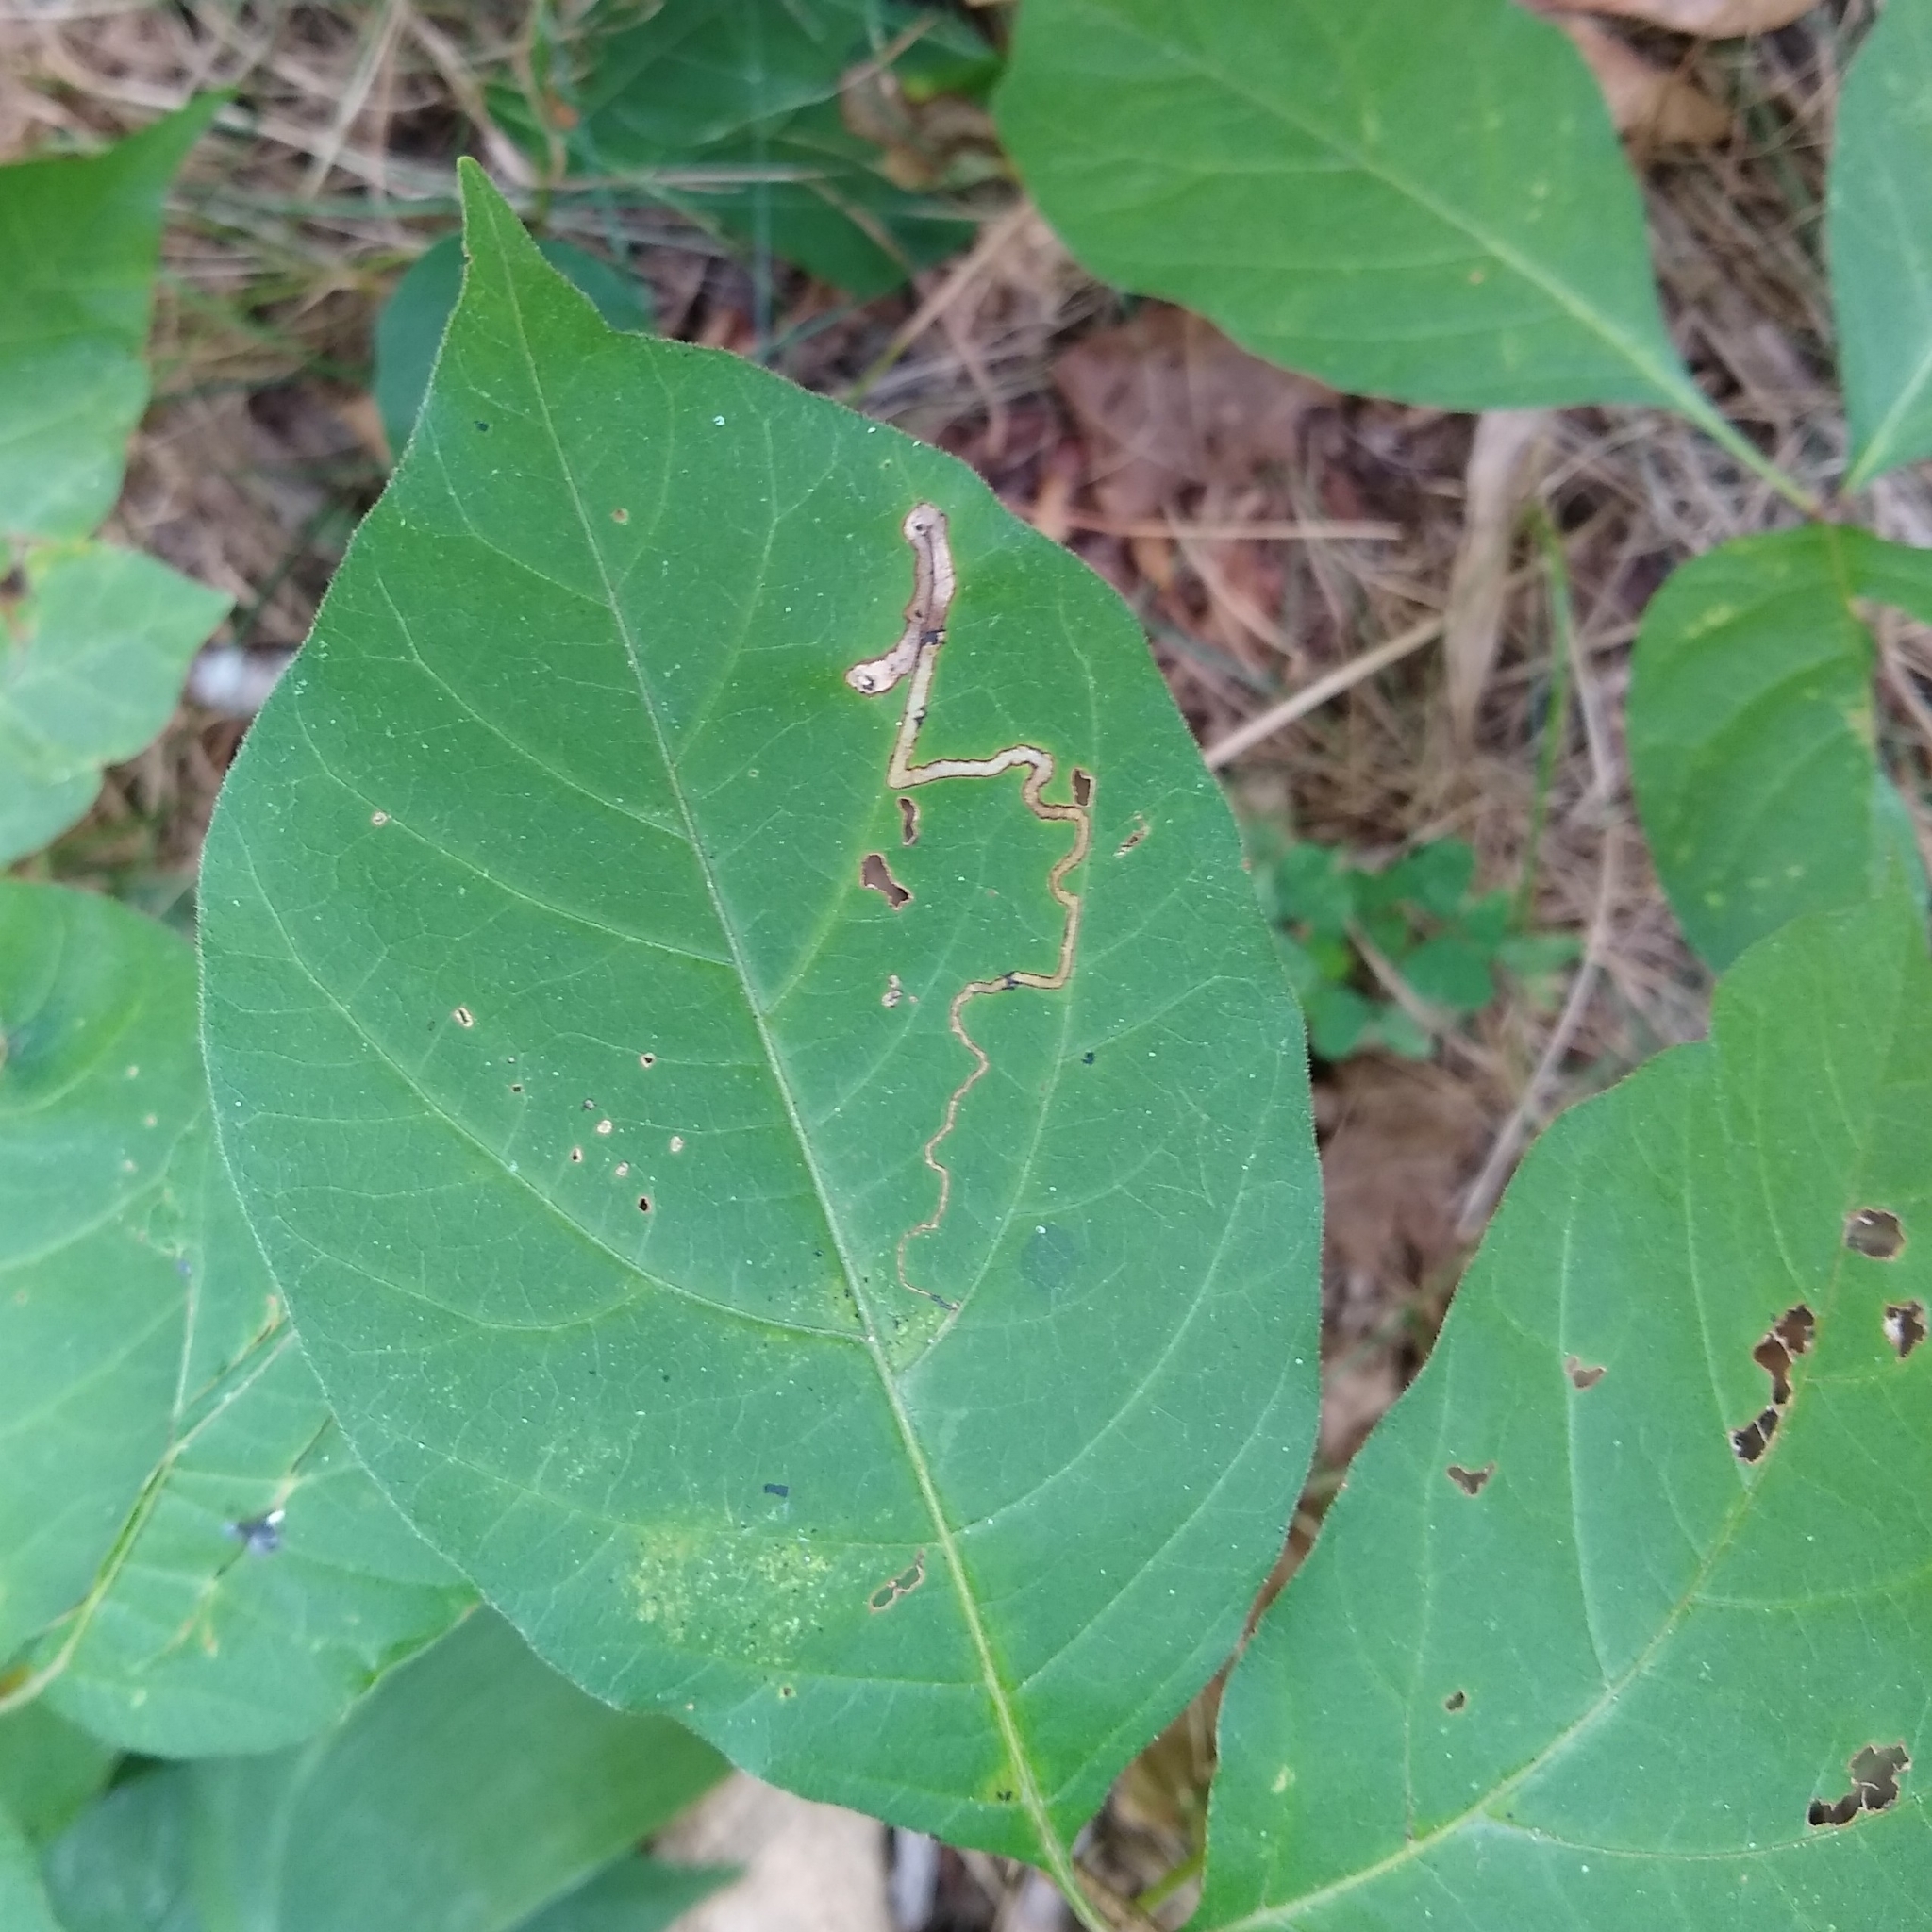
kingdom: Animalia
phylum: Arthropoda
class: Insecta
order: Lepidoptera
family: Nepticulidae
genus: Stigmella
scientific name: Stigmella rhoifoliella
